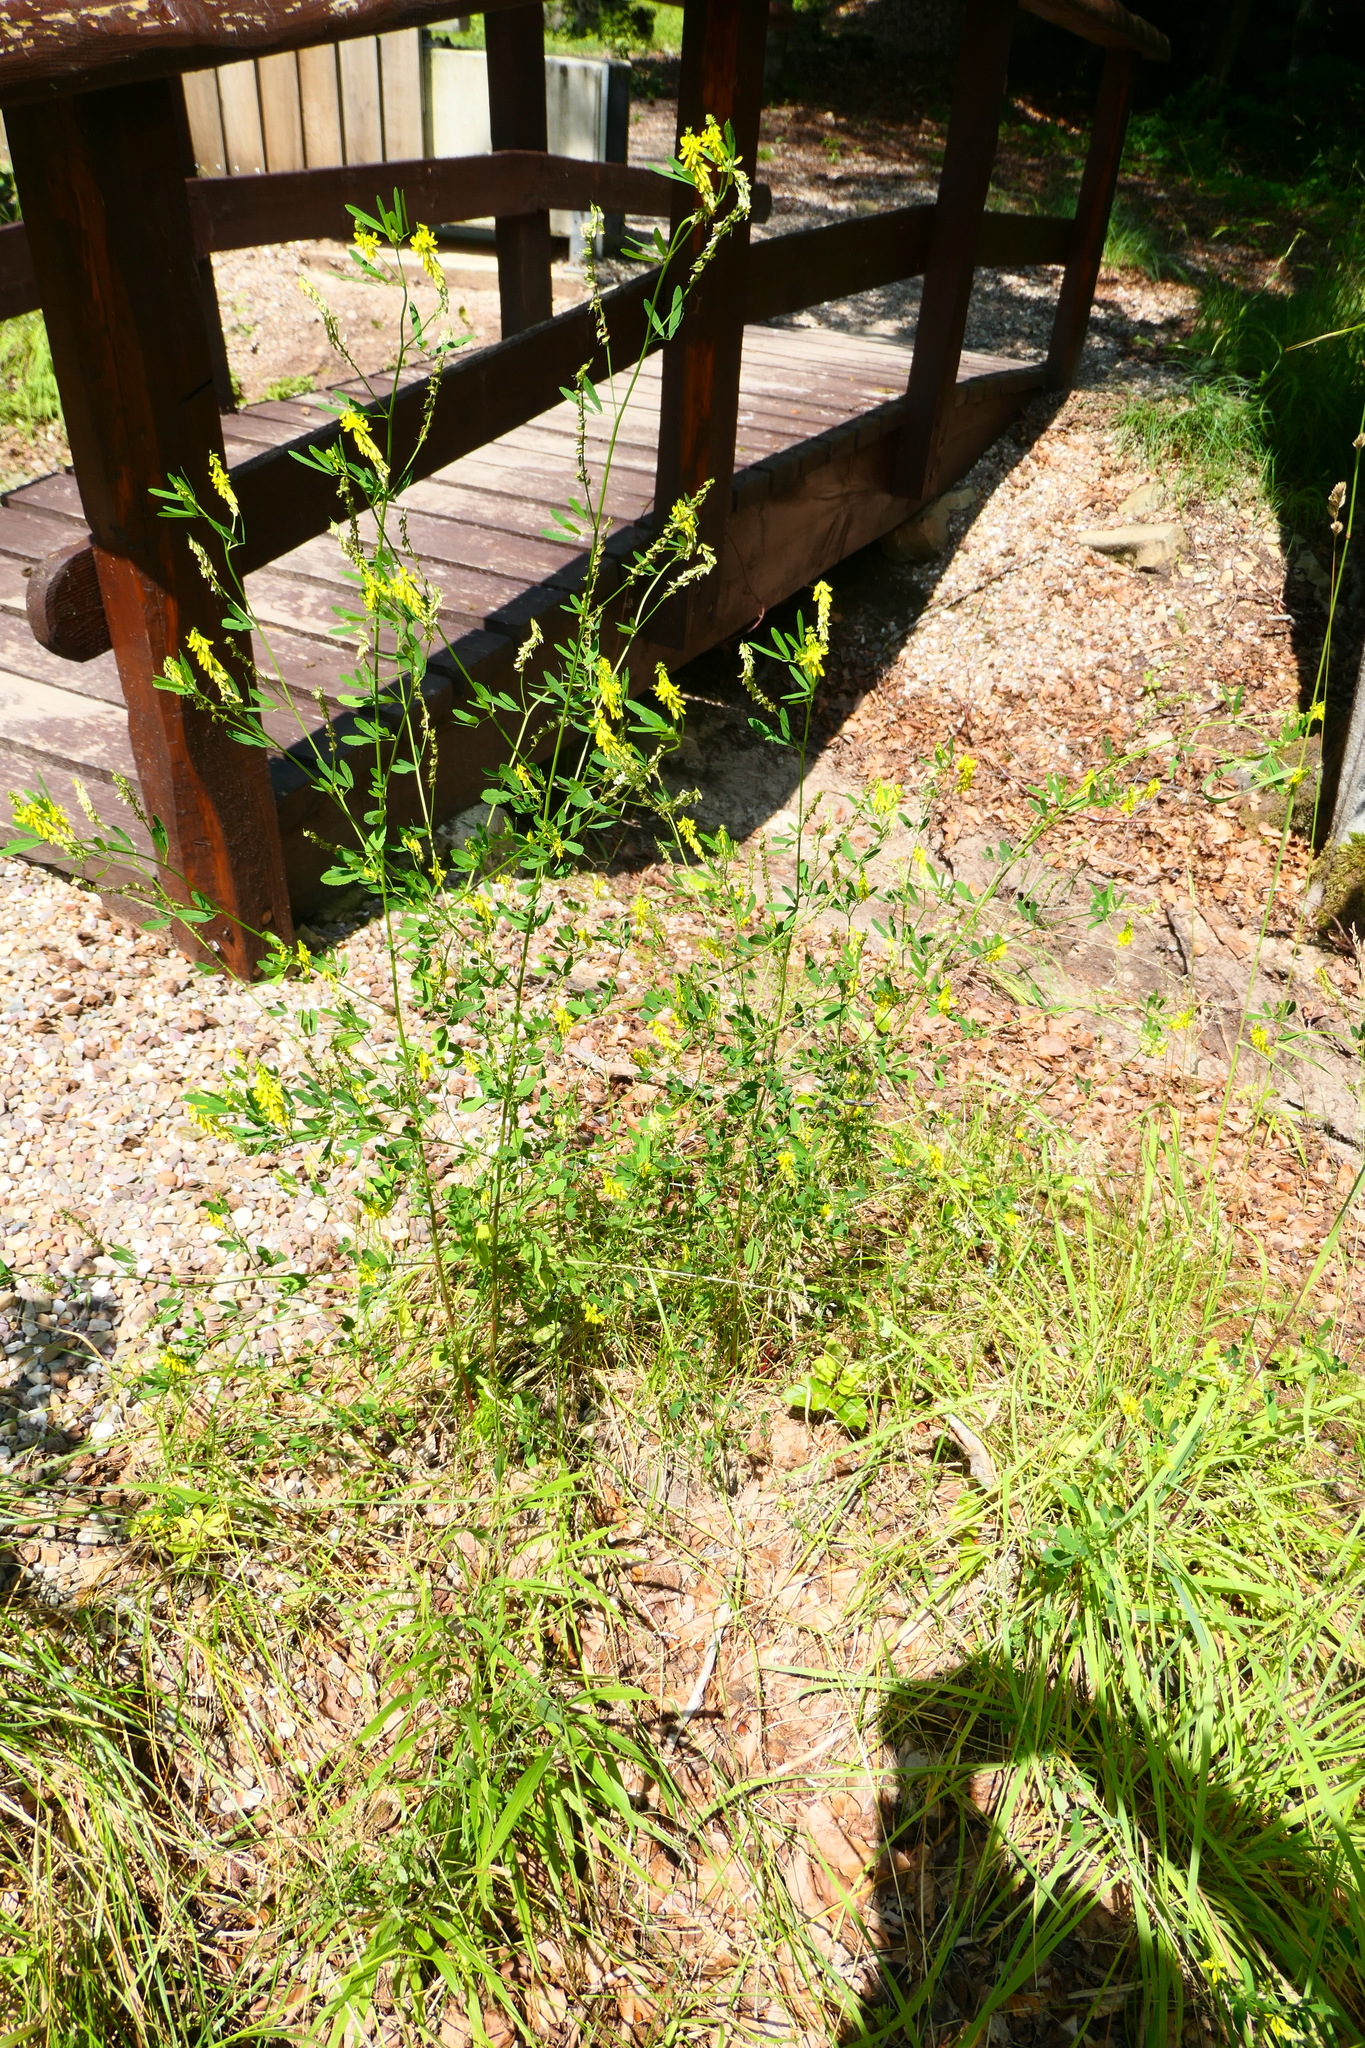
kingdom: Plantae
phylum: Tracheophyta
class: Magnoliopsida
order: Fabales
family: Fabaceae
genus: Melilotus
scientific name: Melilotus officinalis
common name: Sweetclover
